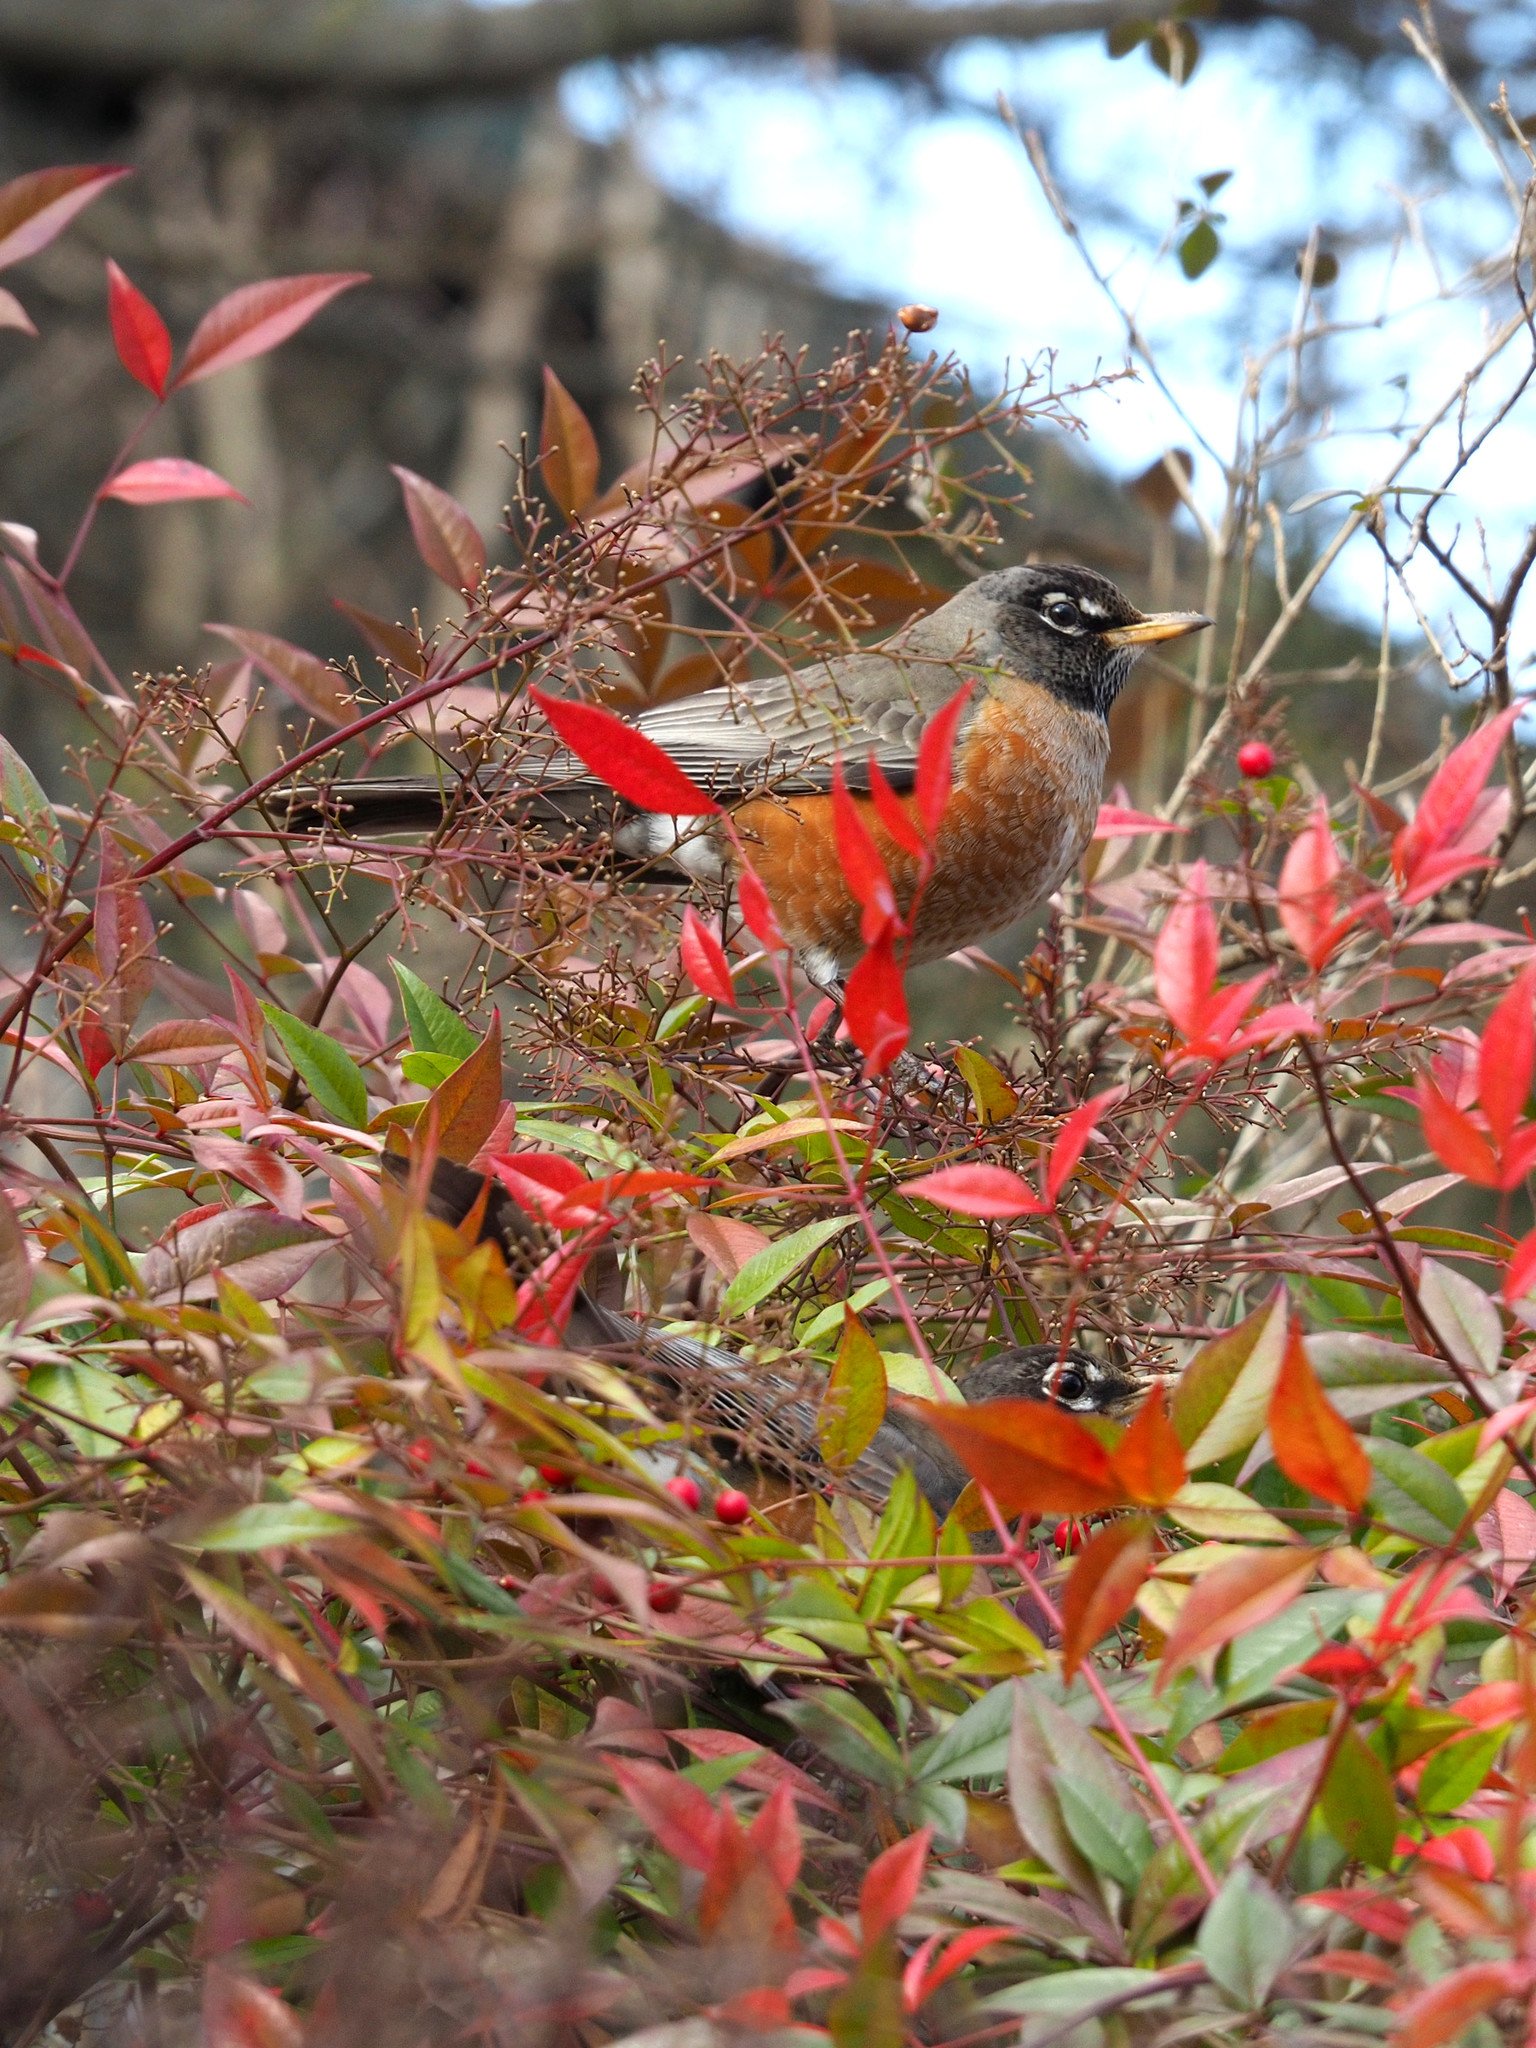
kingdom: Animalia
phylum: Chordata
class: Aves
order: Passeriformes
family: Turdidae
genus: Turdus
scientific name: Turdus migratorius
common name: American robin
